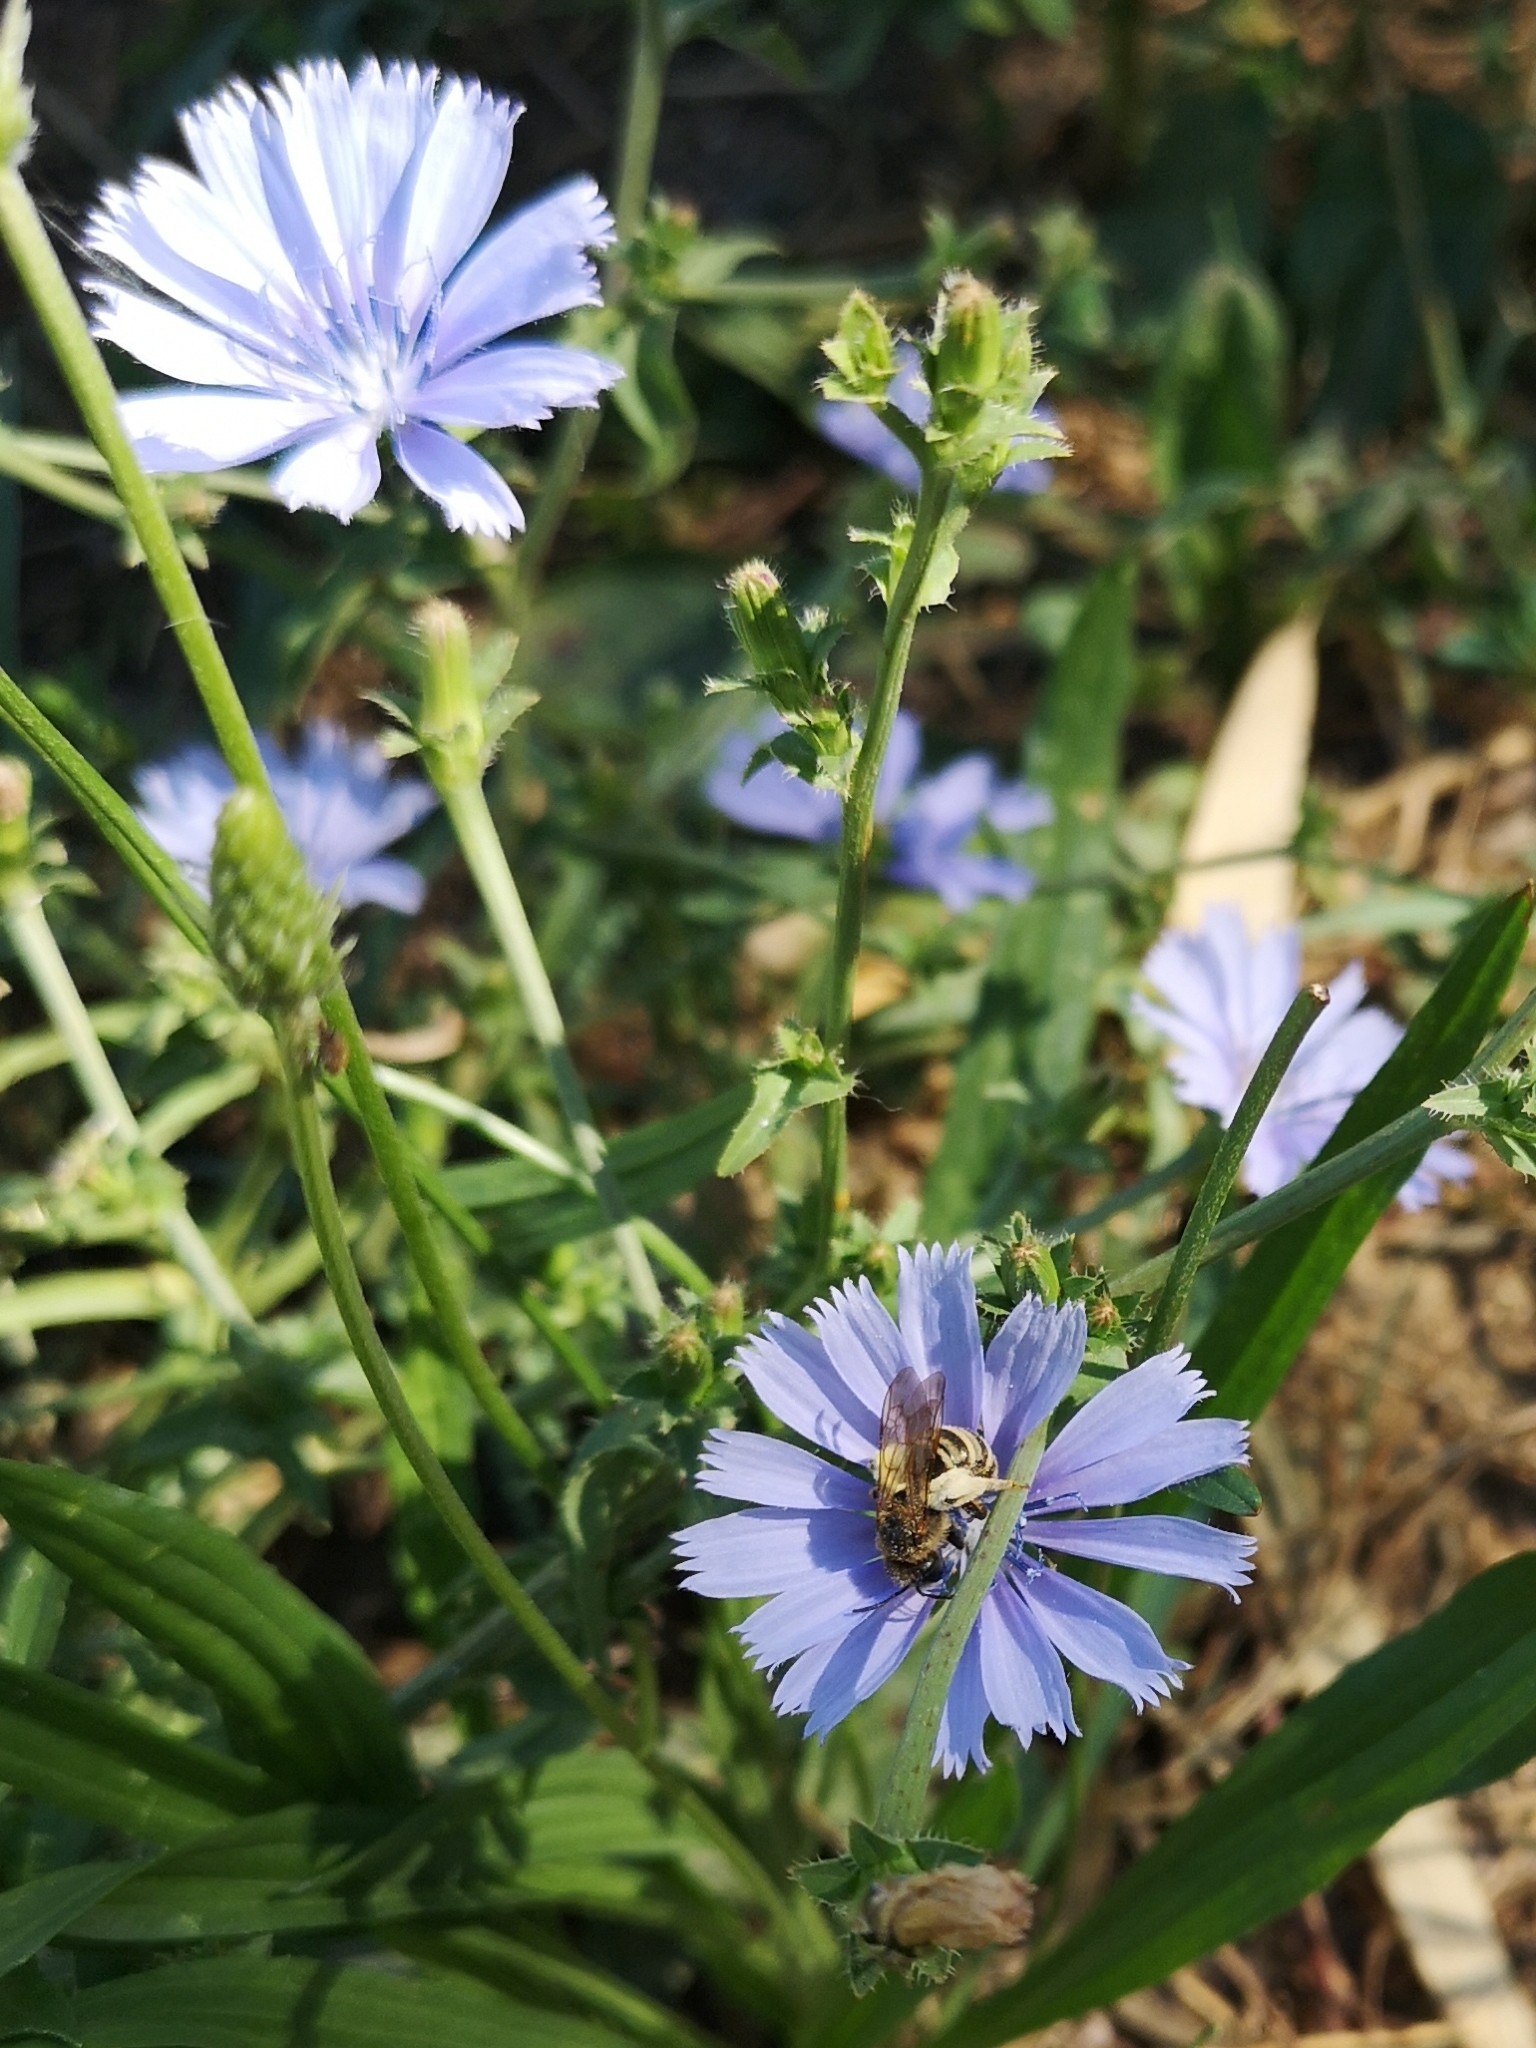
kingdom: Animalia
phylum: Arthropoda
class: Insecta
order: Hymenoptera
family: Halictidae
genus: Halictus
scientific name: Halictus scabiosae
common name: Great banded furrow bee
